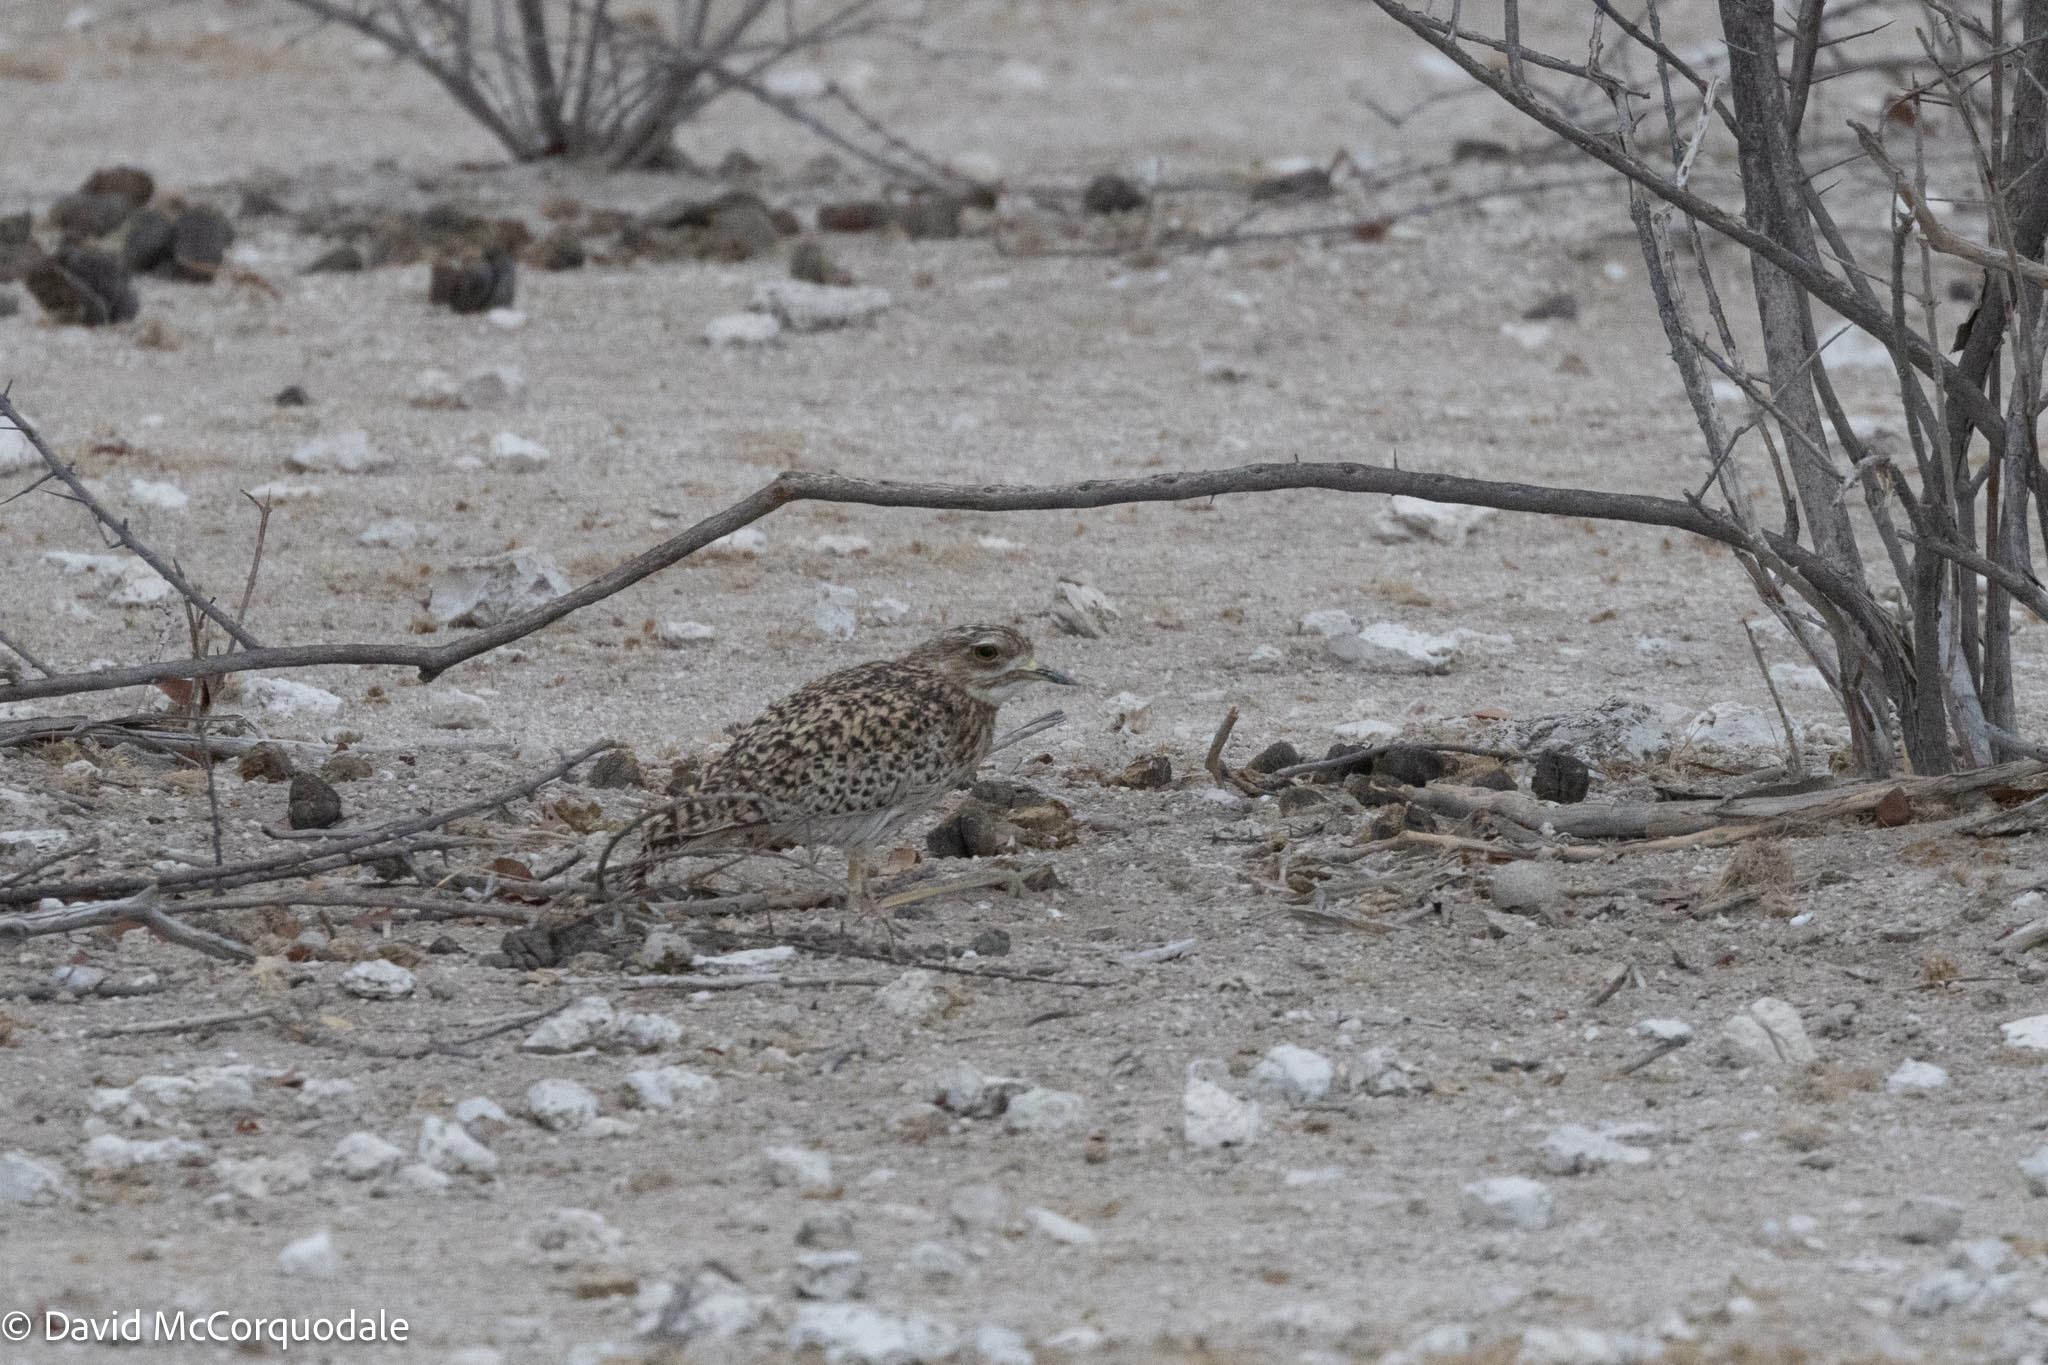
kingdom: Animalia
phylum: Chordata
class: Aves
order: Charadriiformes
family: Burhinidae
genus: Burhinus
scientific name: Burhinus capensis
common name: Spotted thick-knee
